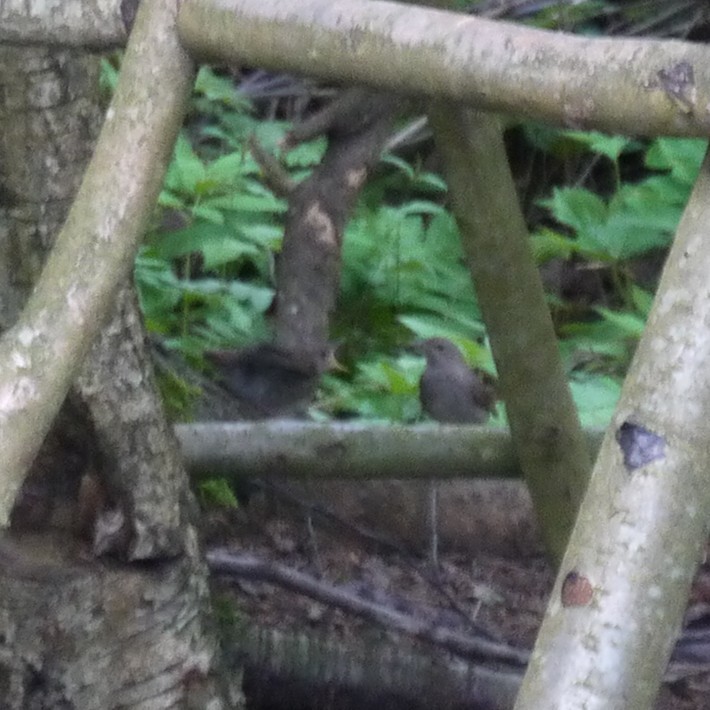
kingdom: Animalia
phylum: Chordata
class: Aves
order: Passeriformes
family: Prunellidae
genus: Prunella
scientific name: Prunella modularis
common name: Dunnock
